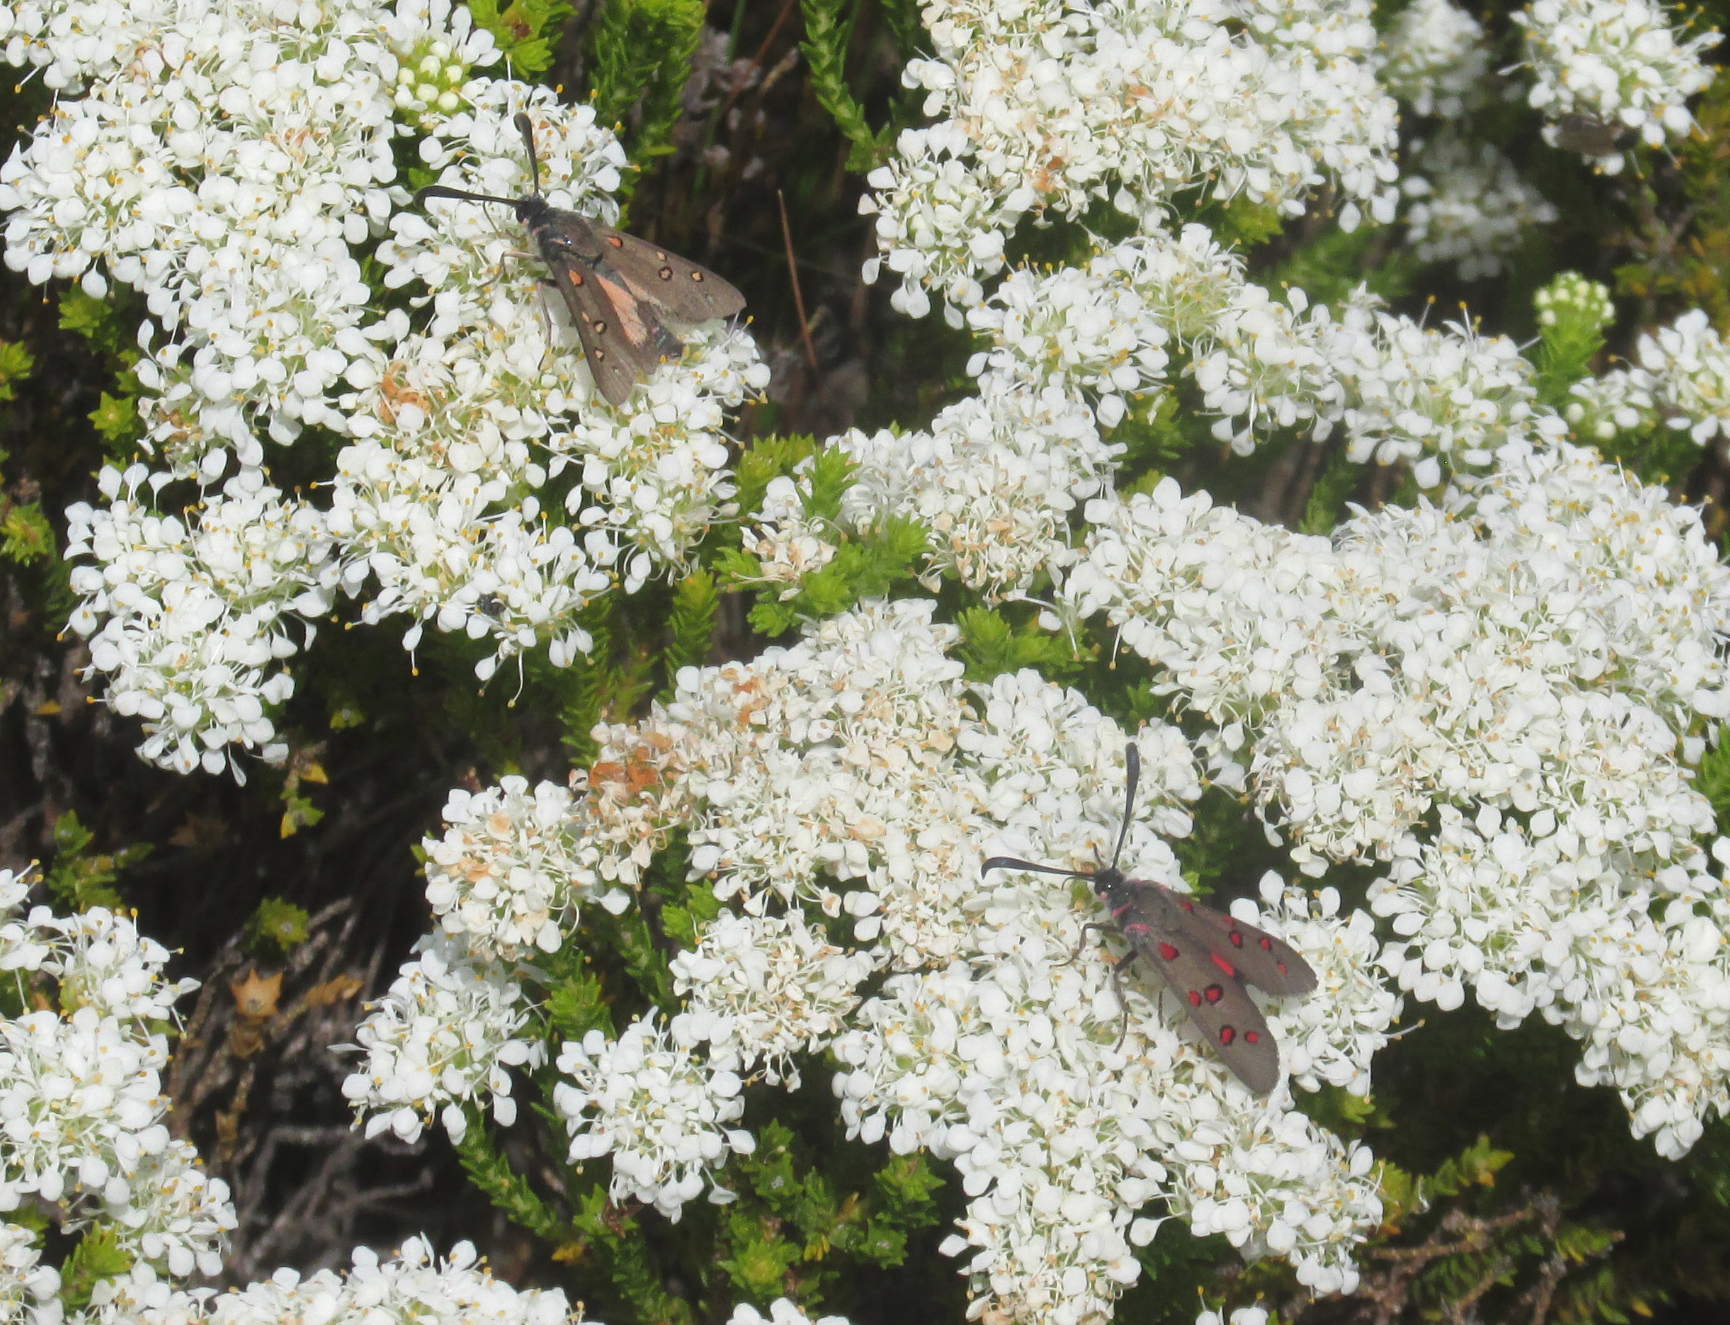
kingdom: Animalia
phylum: Arthropoda
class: Insecta
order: Lepidoptera
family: Zygaenidae
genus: Neurosymploca
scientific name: Neurosymploca naumanniola
